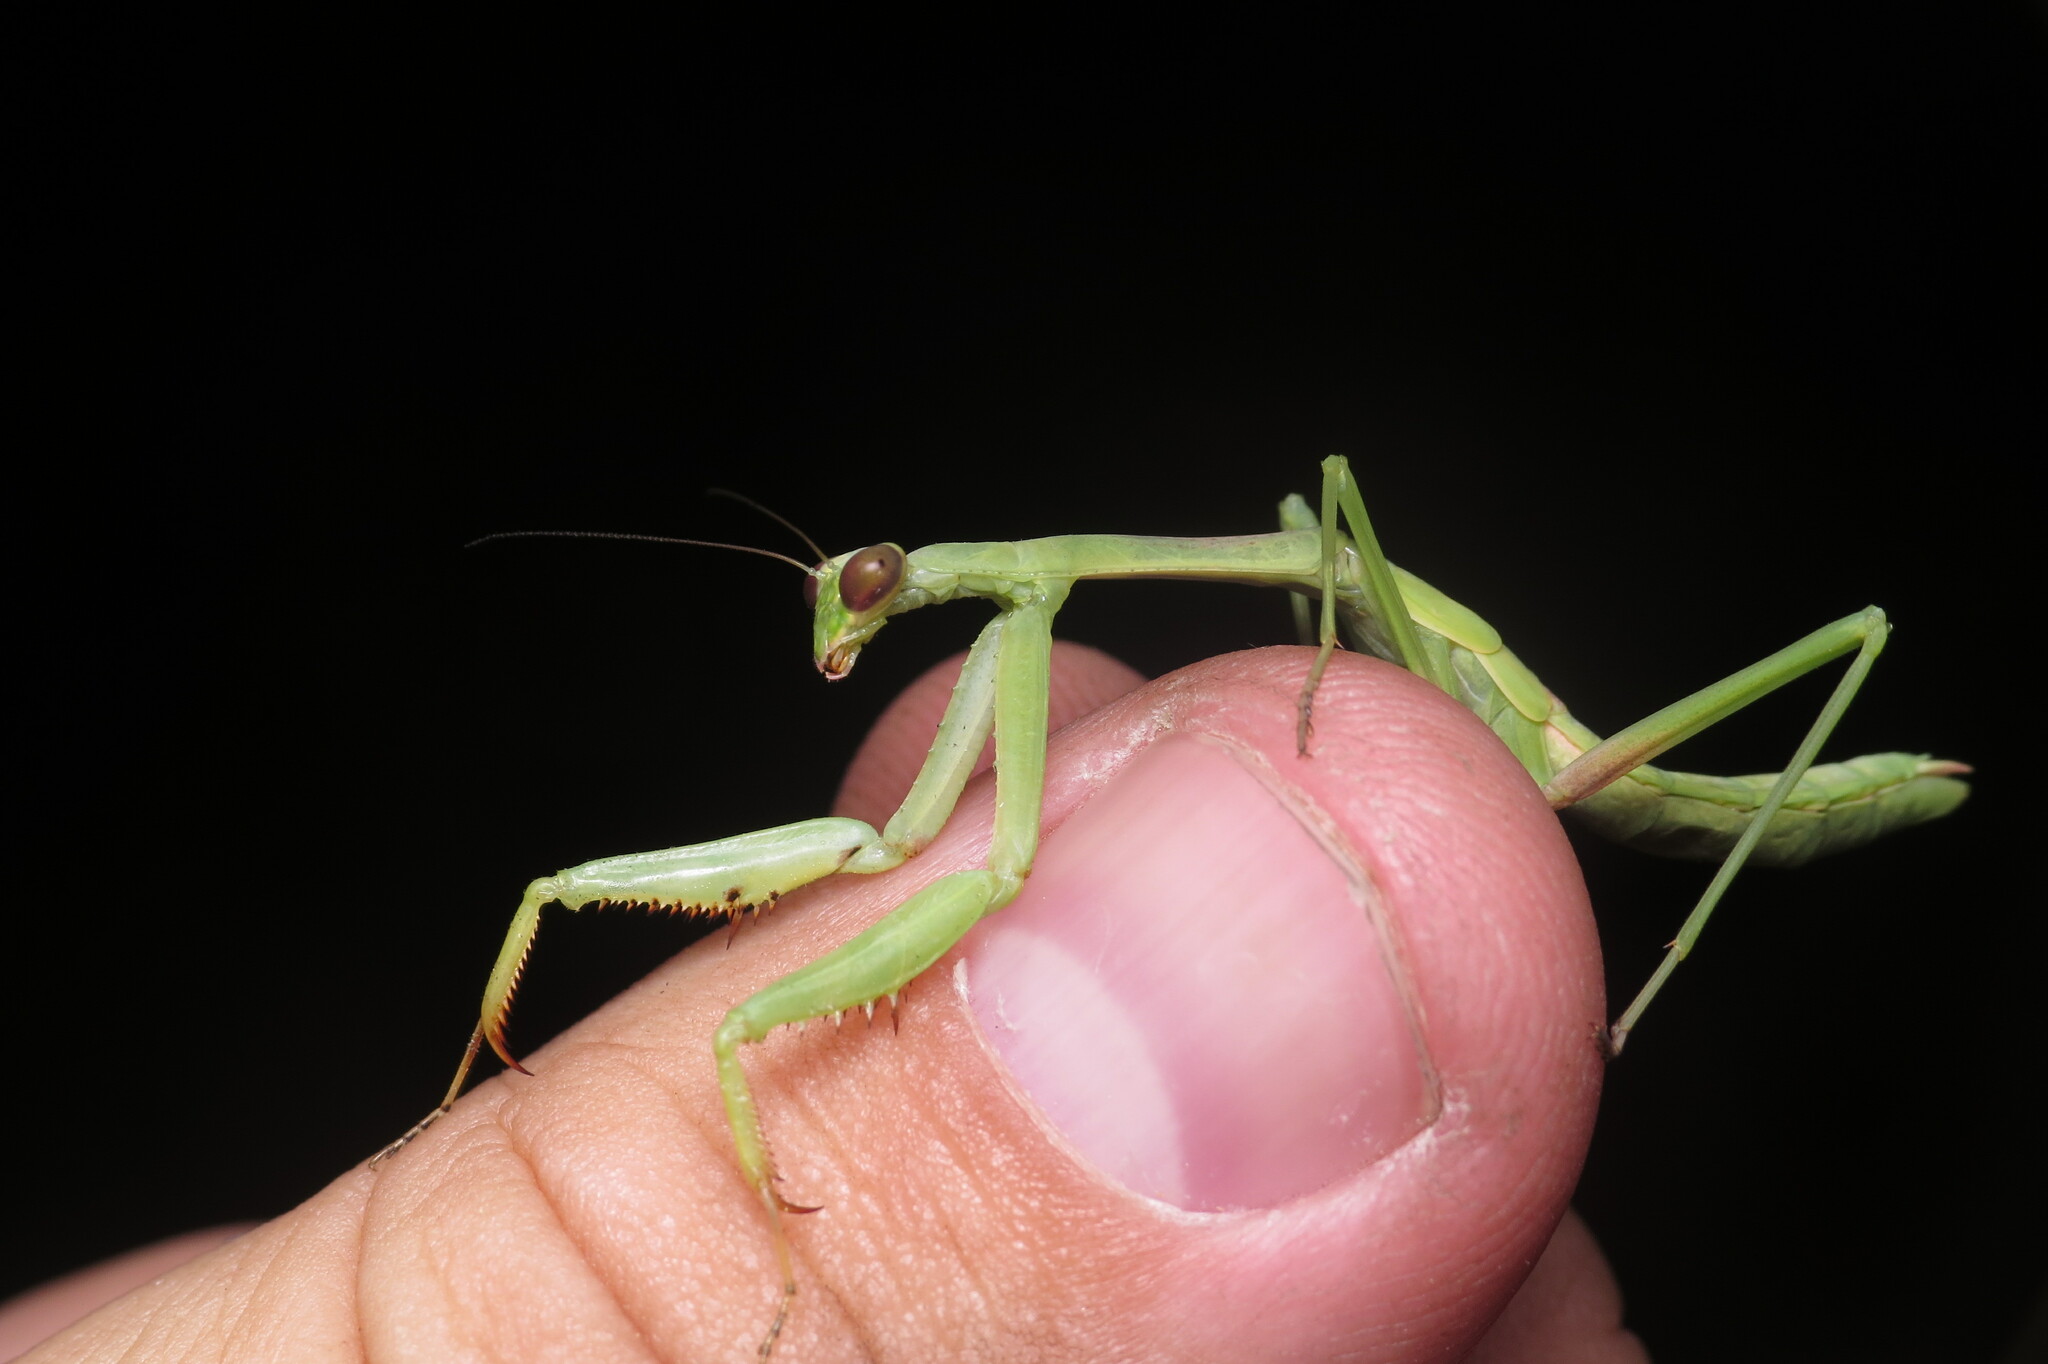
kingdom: Animalia
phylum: Arthropoda
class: Insecta
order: Mantodea
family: Mantidae
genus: Stagmomantis
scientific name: Stagmomantis carolina
